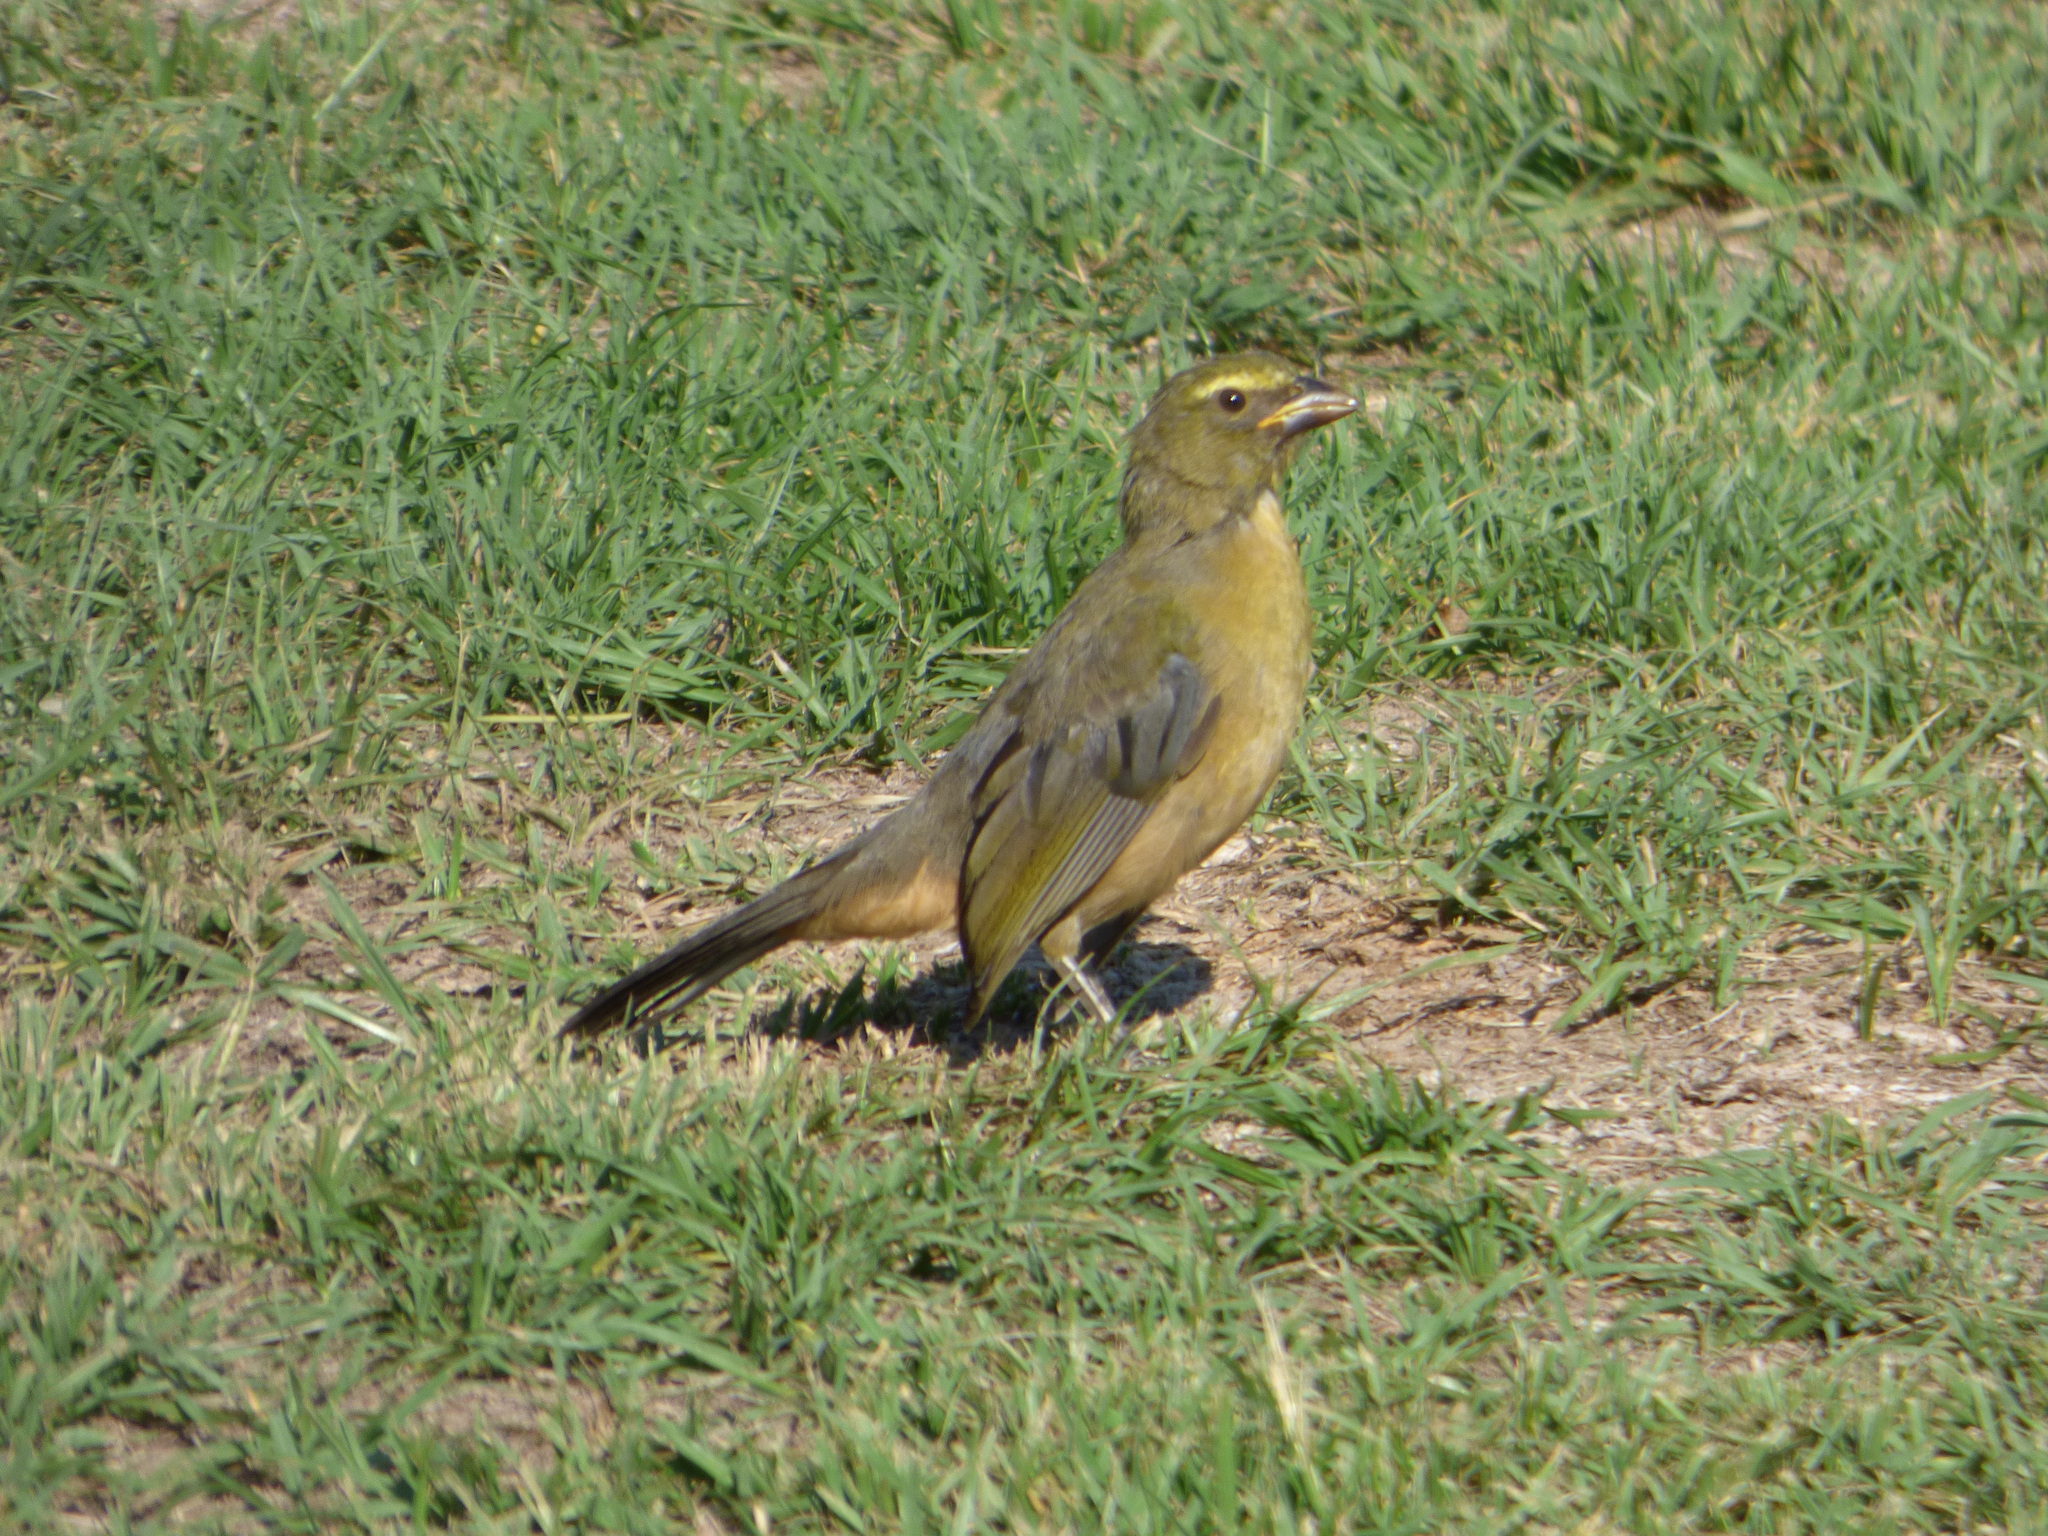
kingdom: Animalia
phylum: Chordata
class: Aves
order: Passeriformes
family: Thraupidae
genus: Saltator
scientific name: Saltator coerulescens
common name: Grayish saltator
